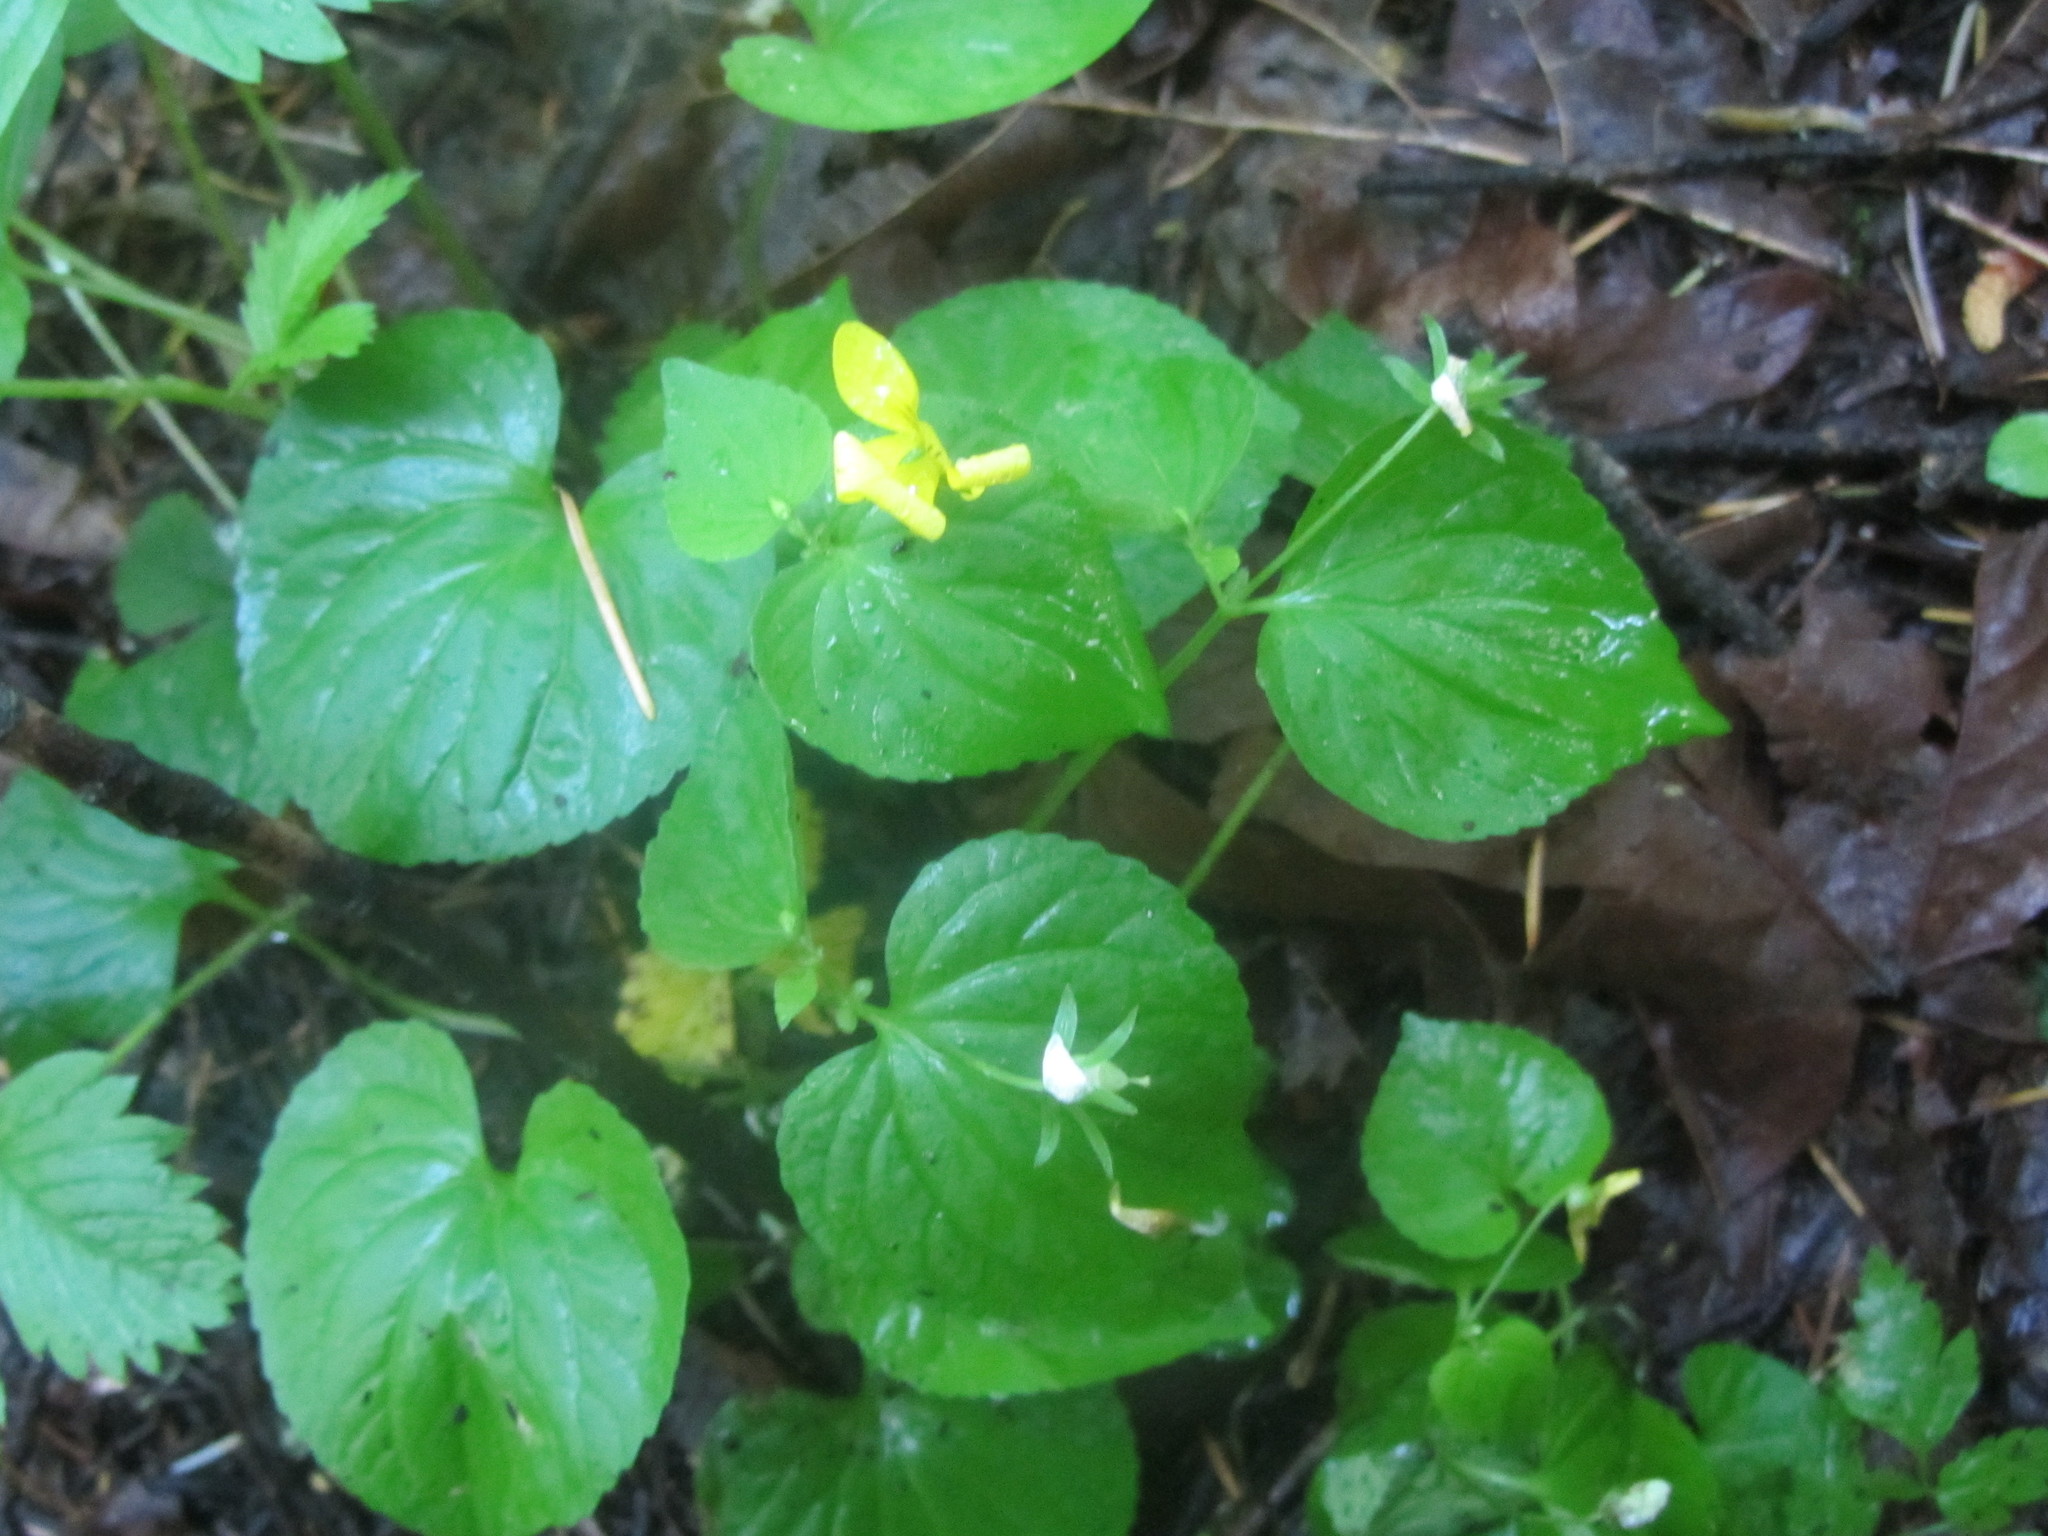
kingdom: Plantae
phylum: Tracheophyta
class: Magnoliopsida
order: Malpighiales
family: Violaceae
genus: Viola
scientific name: Viola glabella
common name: Stream violet
